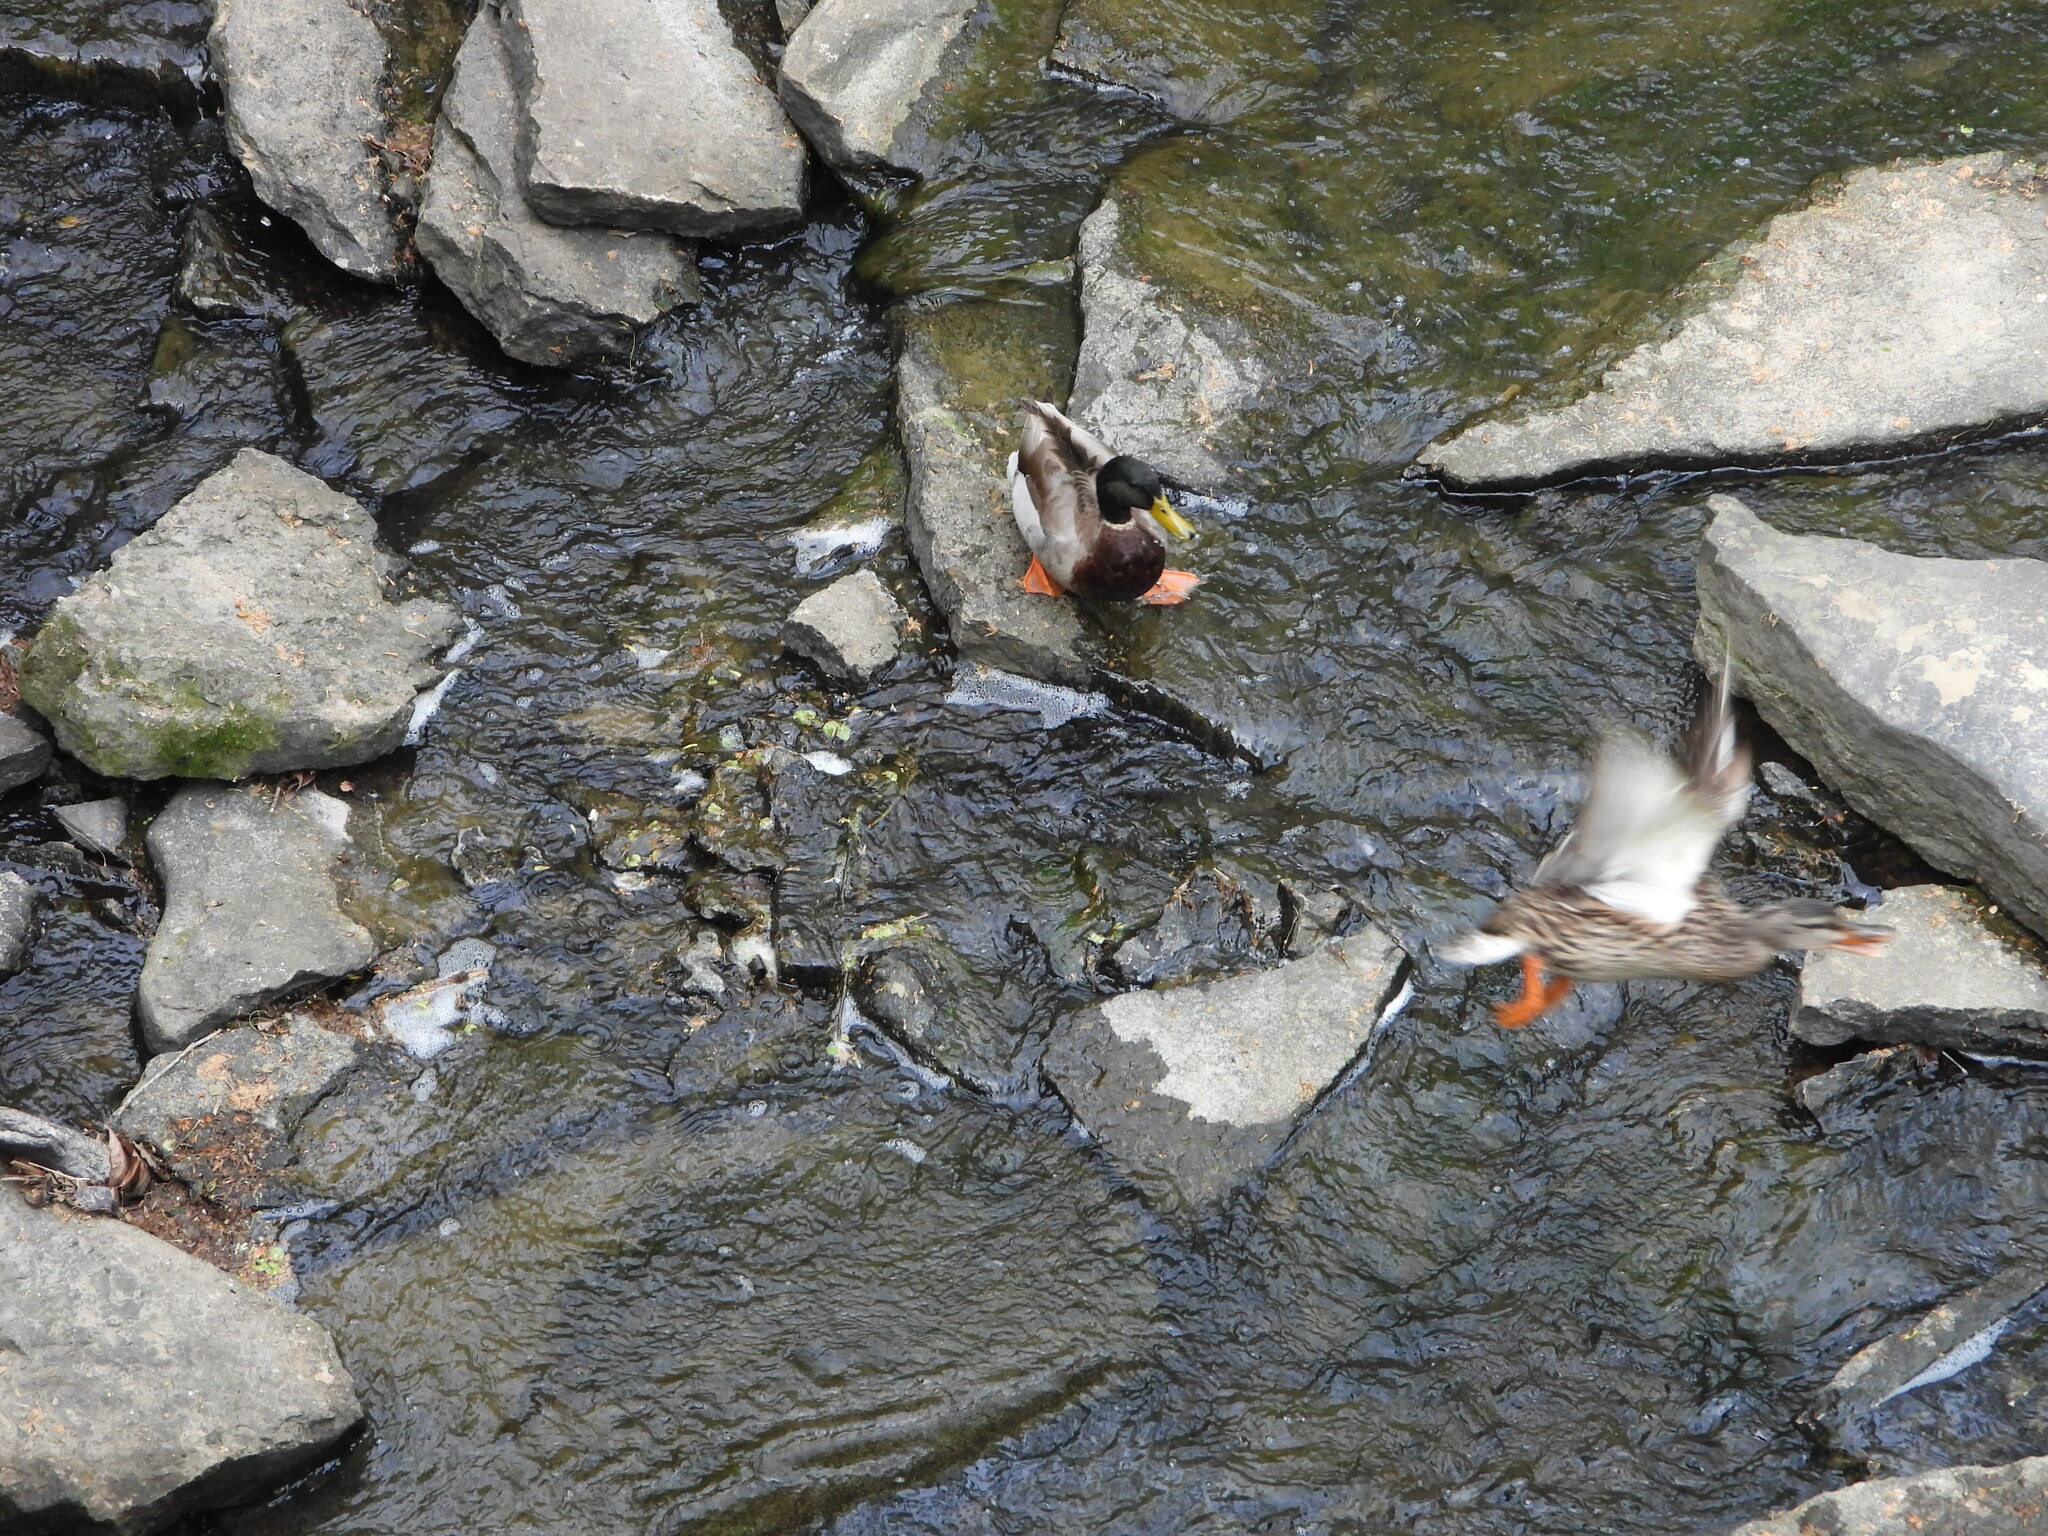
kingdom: Animalia
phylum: Chordata
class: Aves
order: Anseriformes
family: Anatidae
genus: Anas
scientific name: Anas platyrhynchos
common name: Mallard
